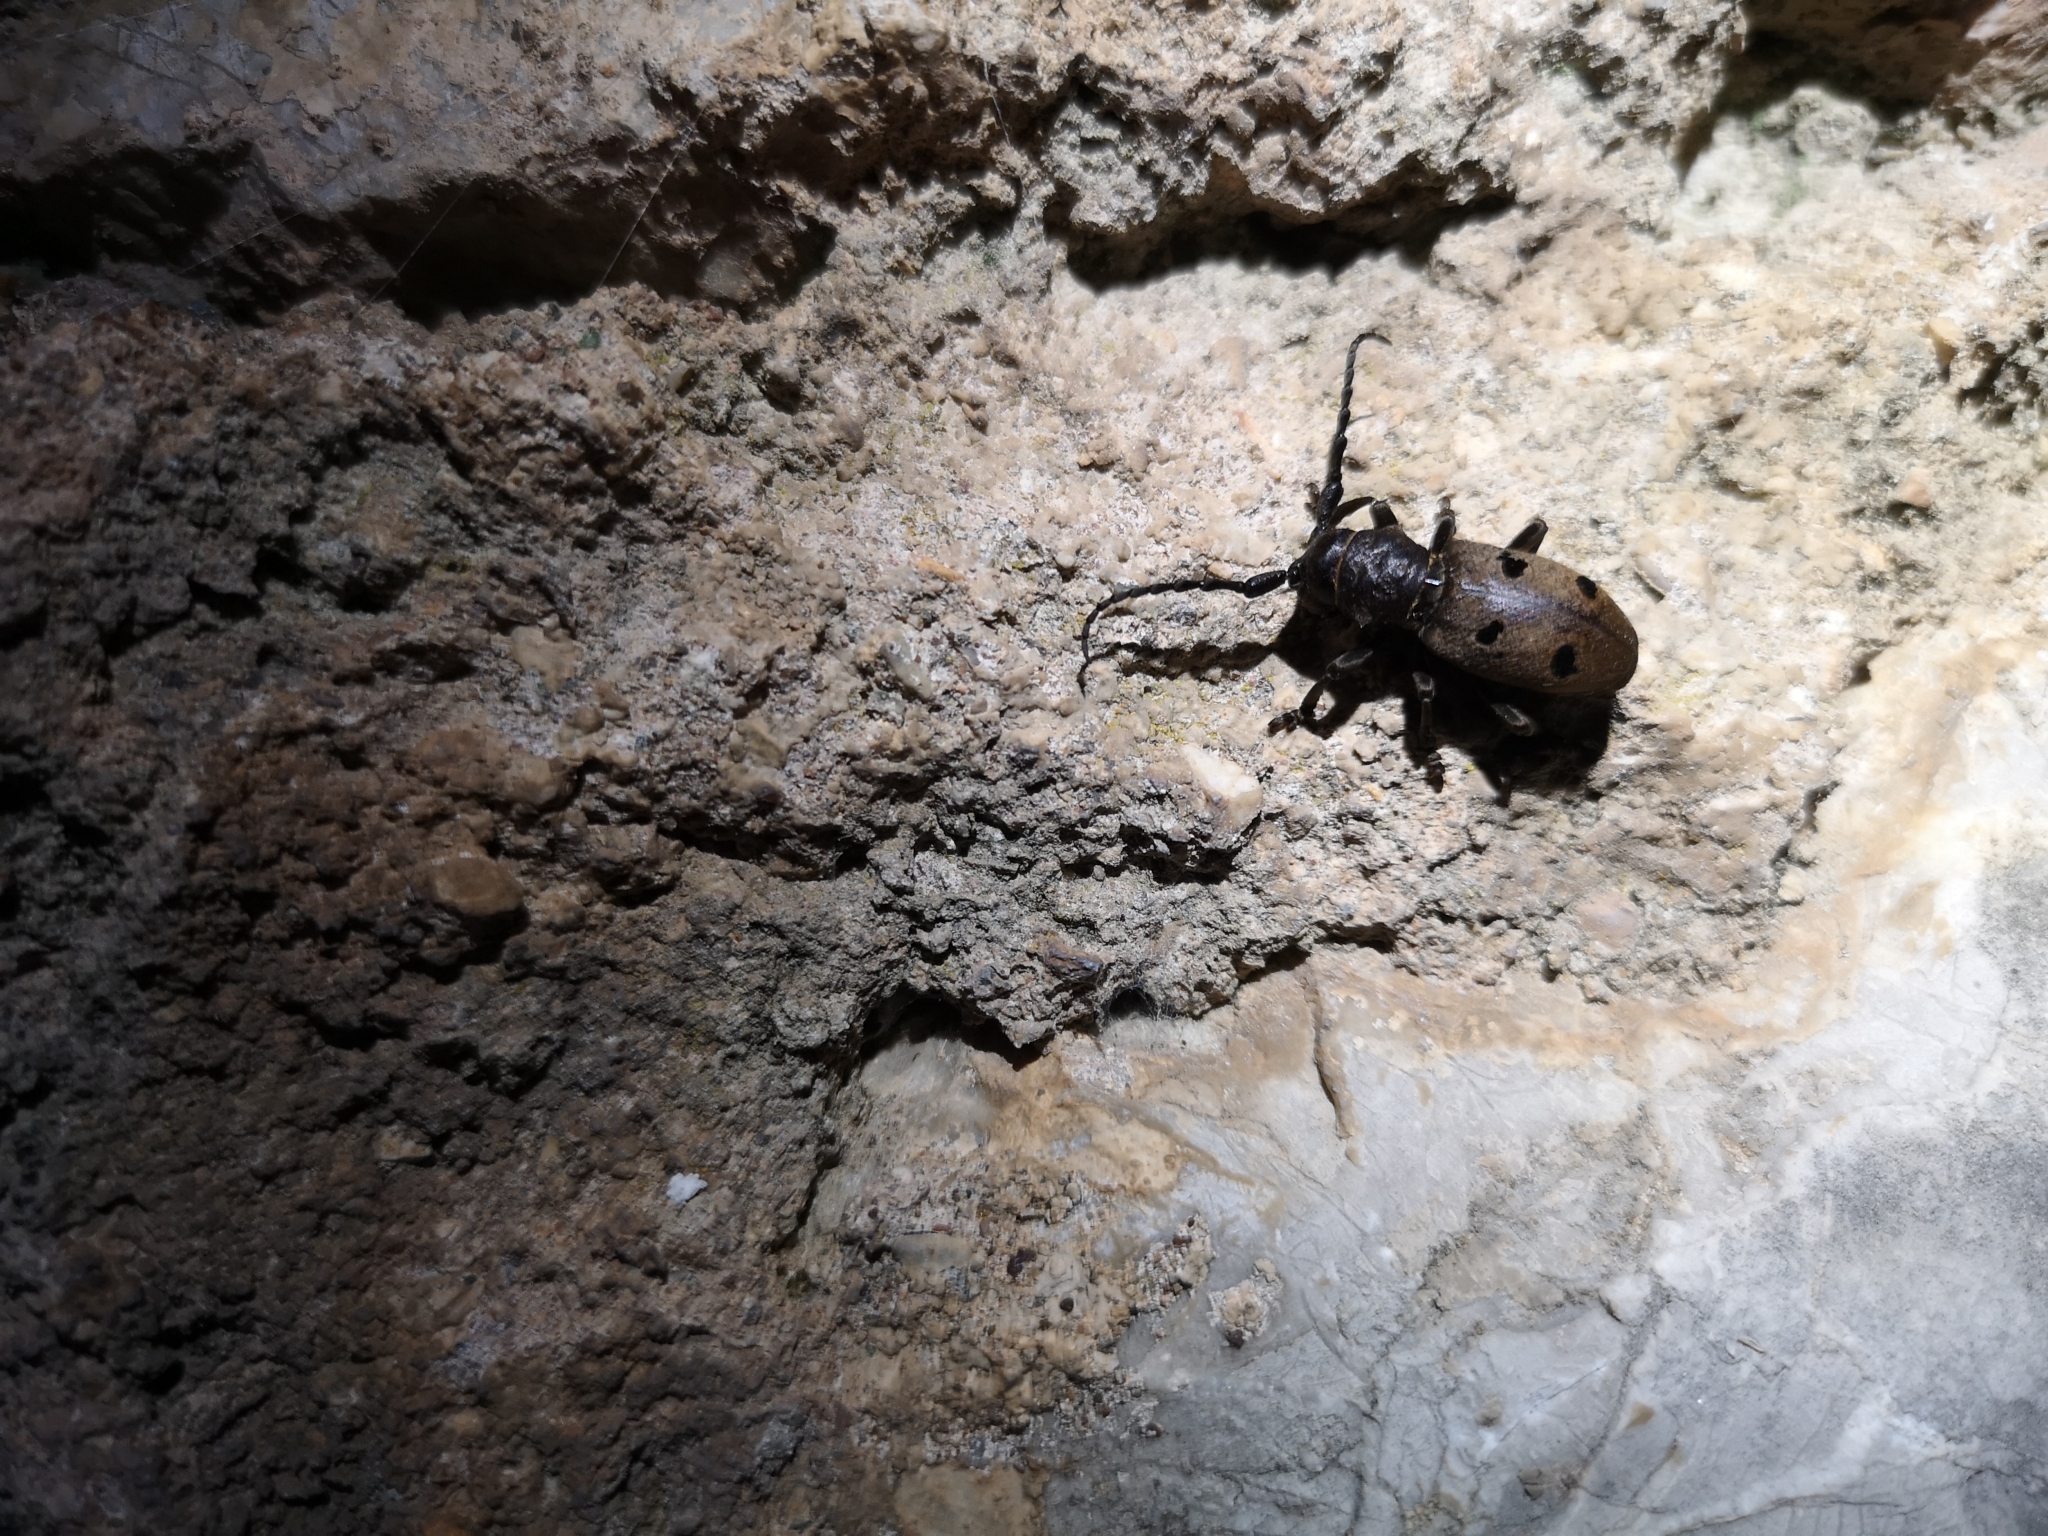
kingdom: Animalia
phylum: Arthropoda
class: Insecta
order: Coleoptera
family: Cerambycidae
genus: Herophila
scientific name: Herophila tristis
